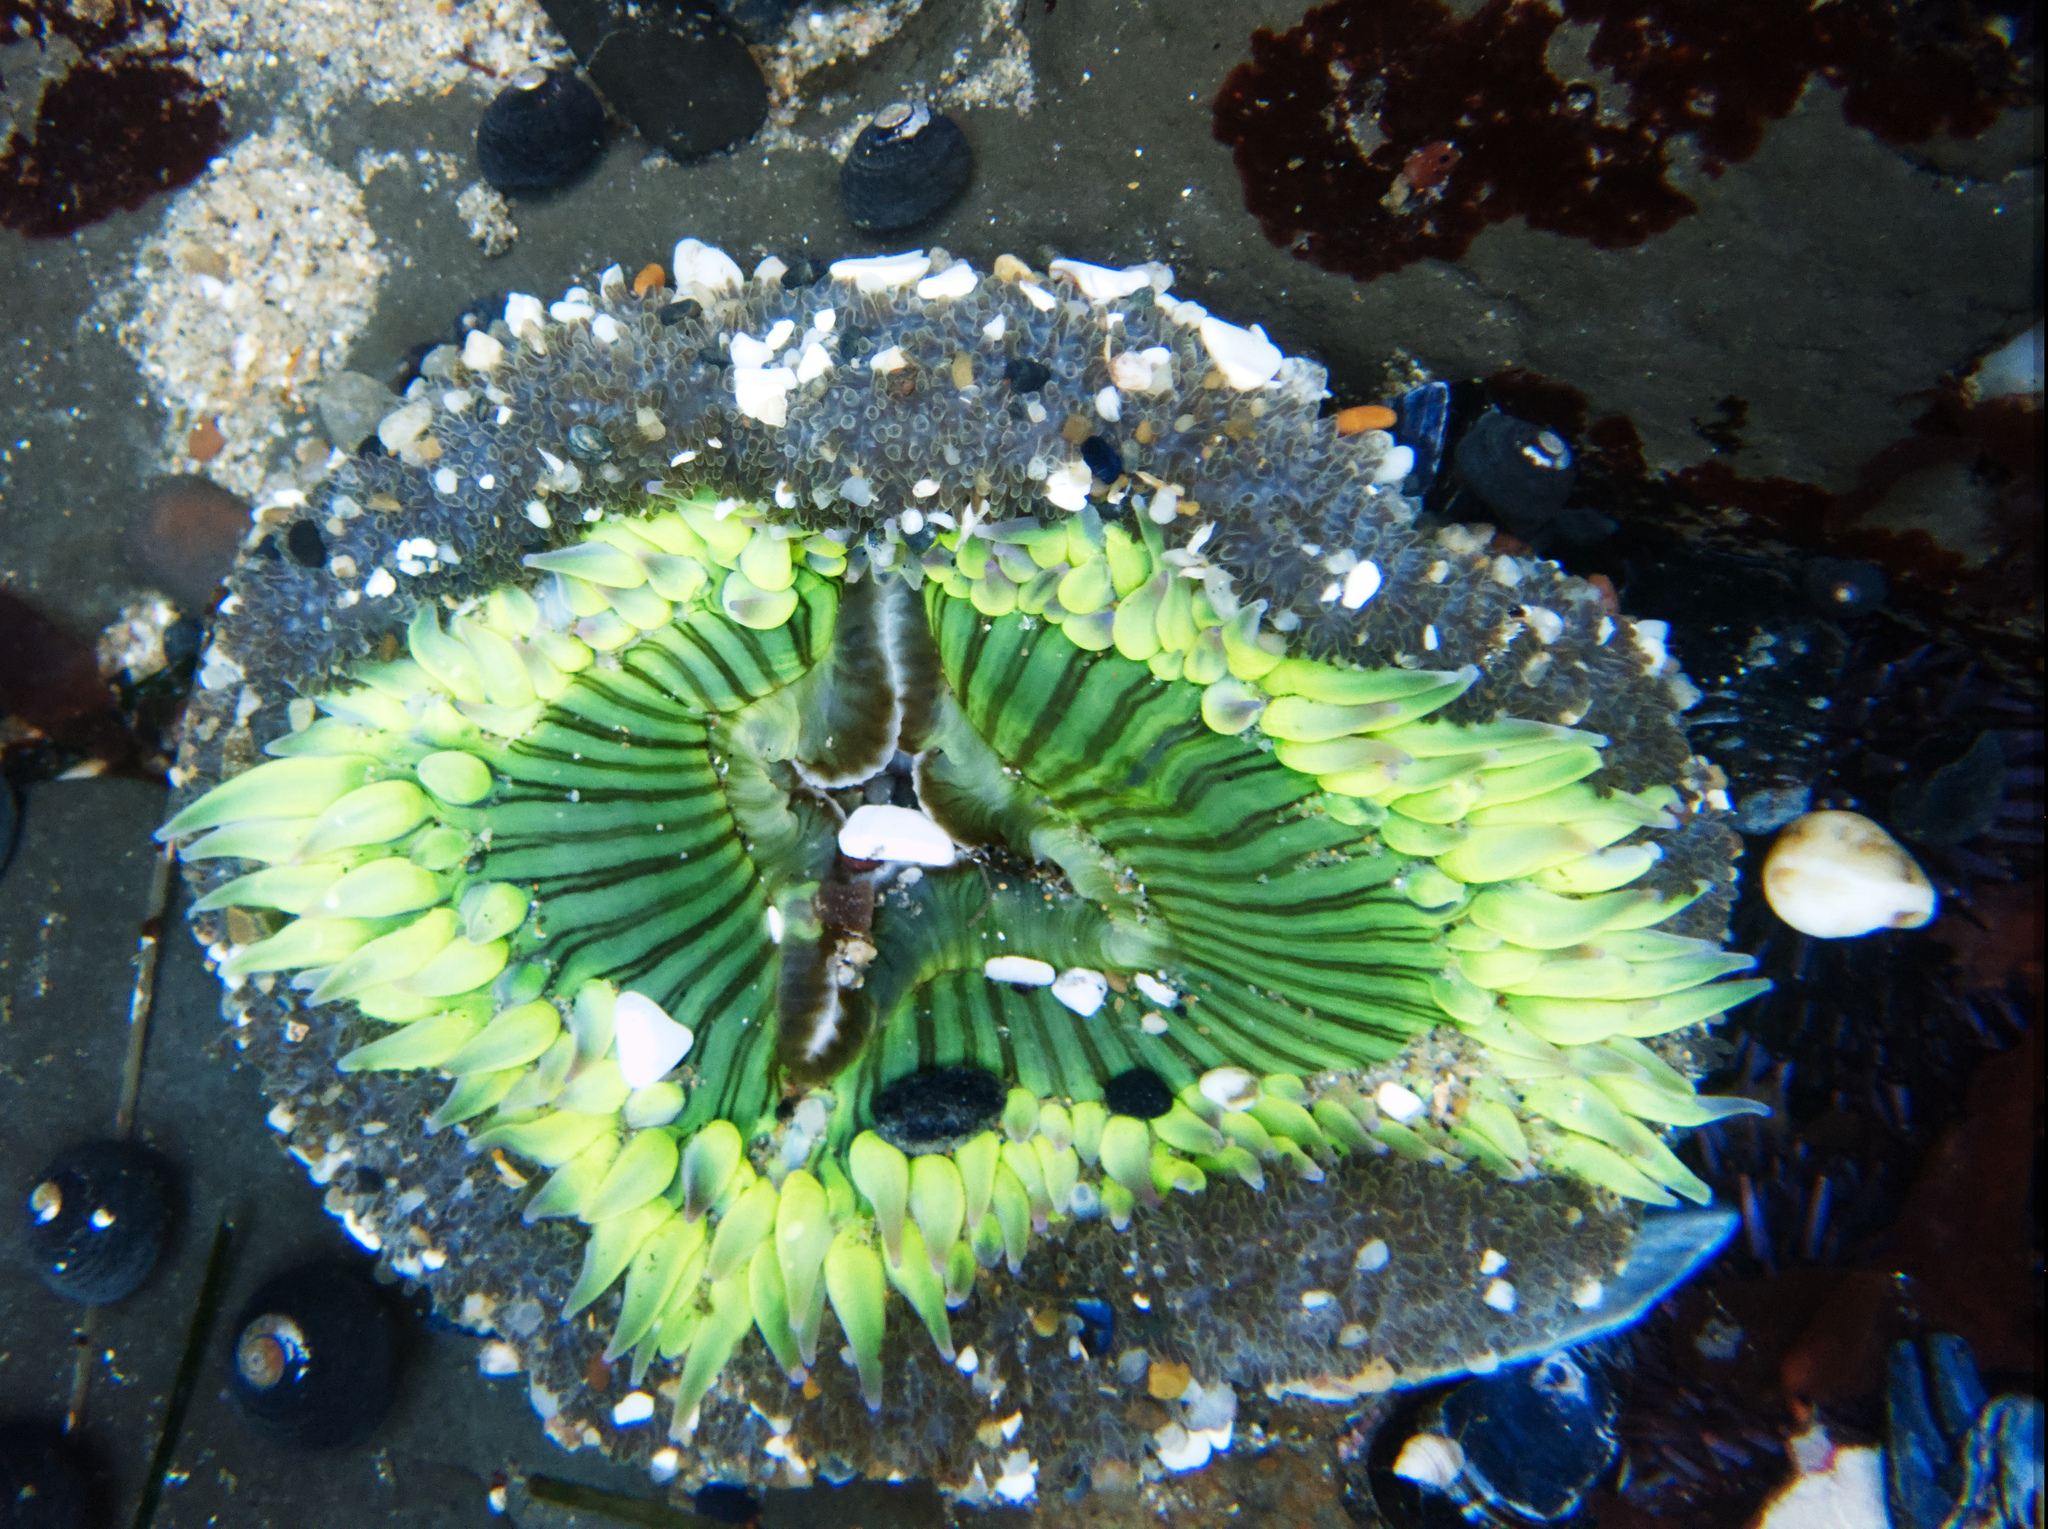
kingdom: Animalia
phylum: Cnidaria
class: Anthozoa
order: Actiniaria
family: Actiniidae
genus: Anthopleura
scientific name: Anthopleura sola
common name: Sun anemone
